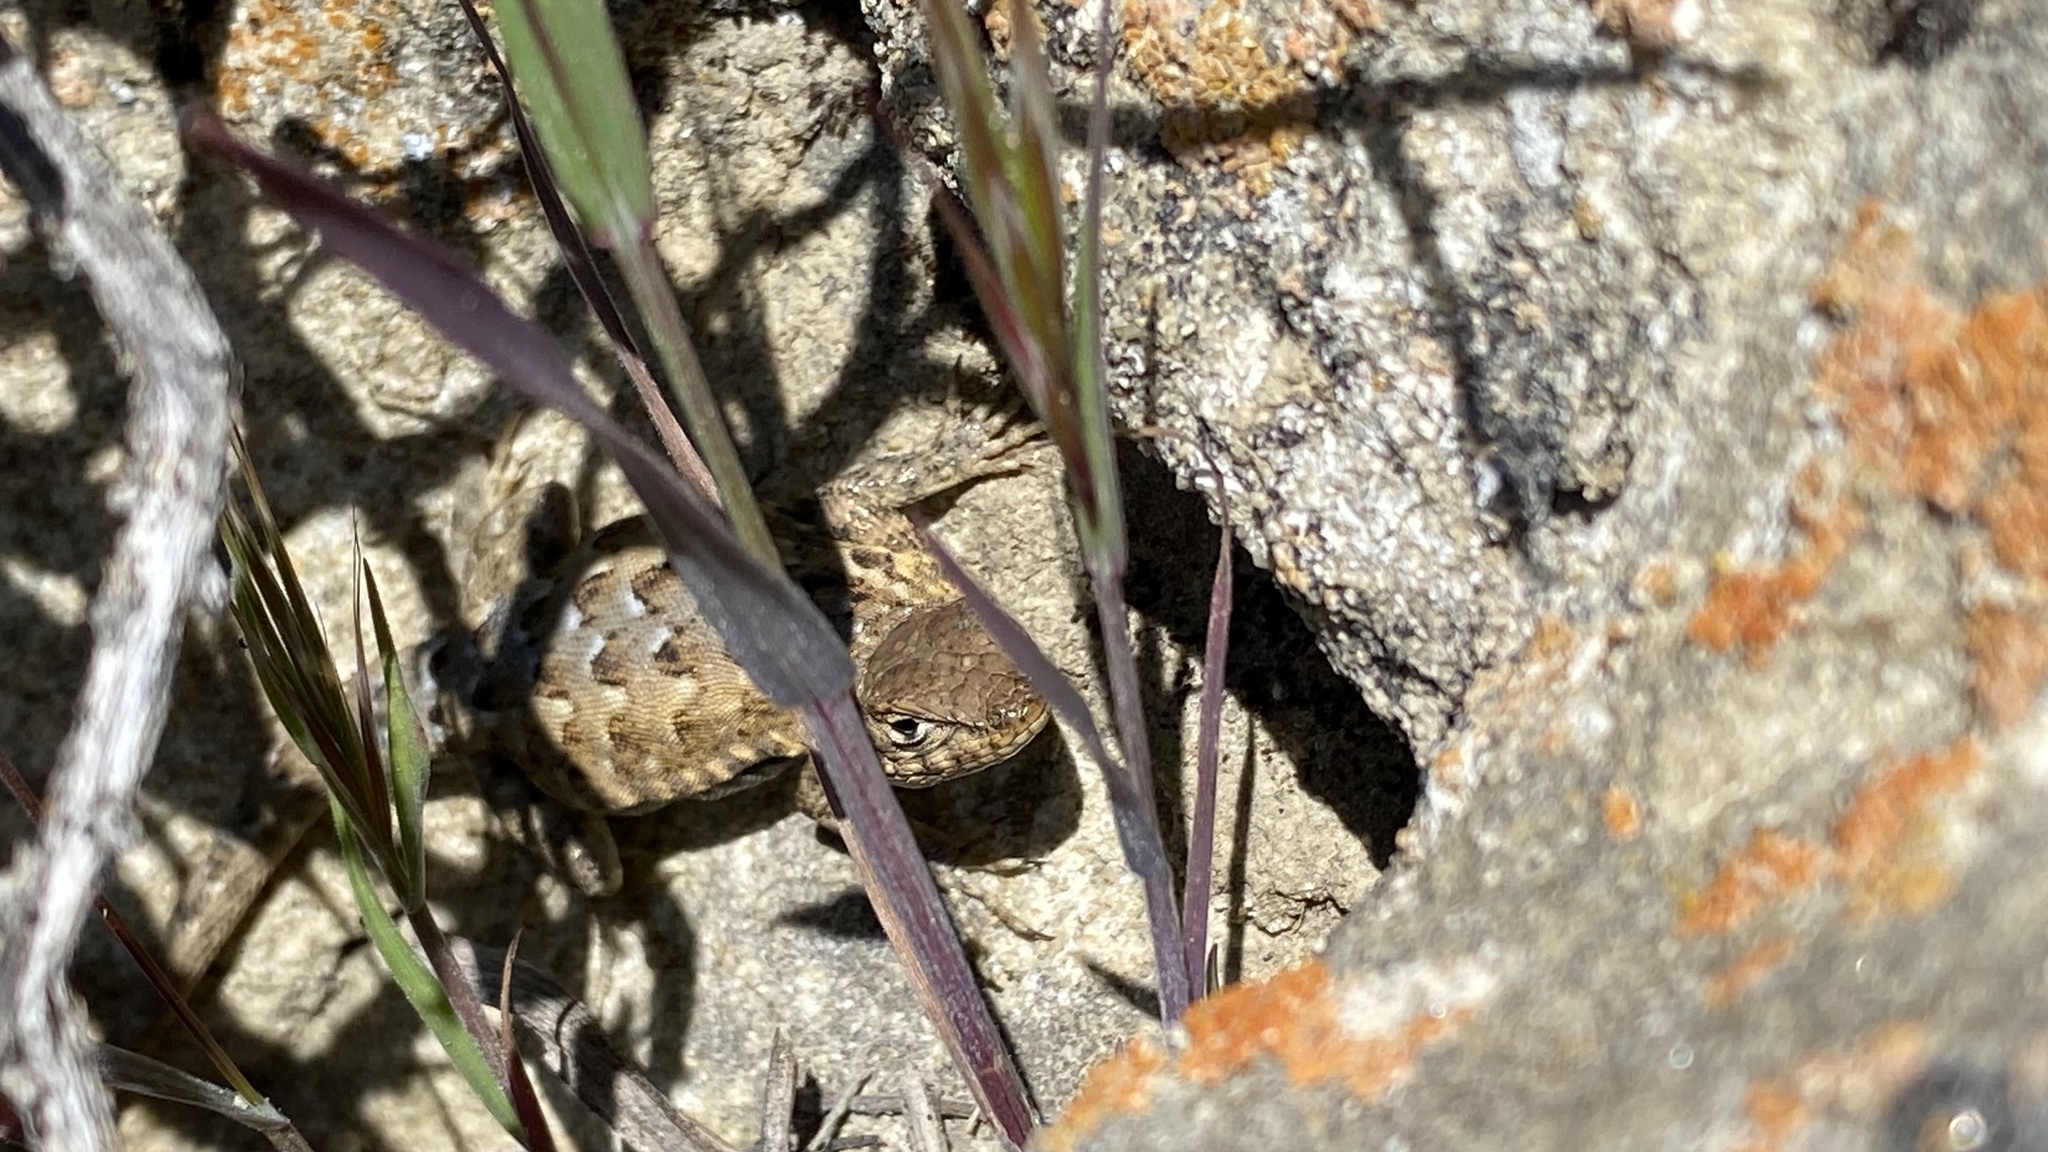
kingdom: Animalia
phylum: Chordata
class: Squamata
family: Phrynosomatidae
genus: Uta
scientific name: Uta stansburiana
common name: Side-blotched lizard
